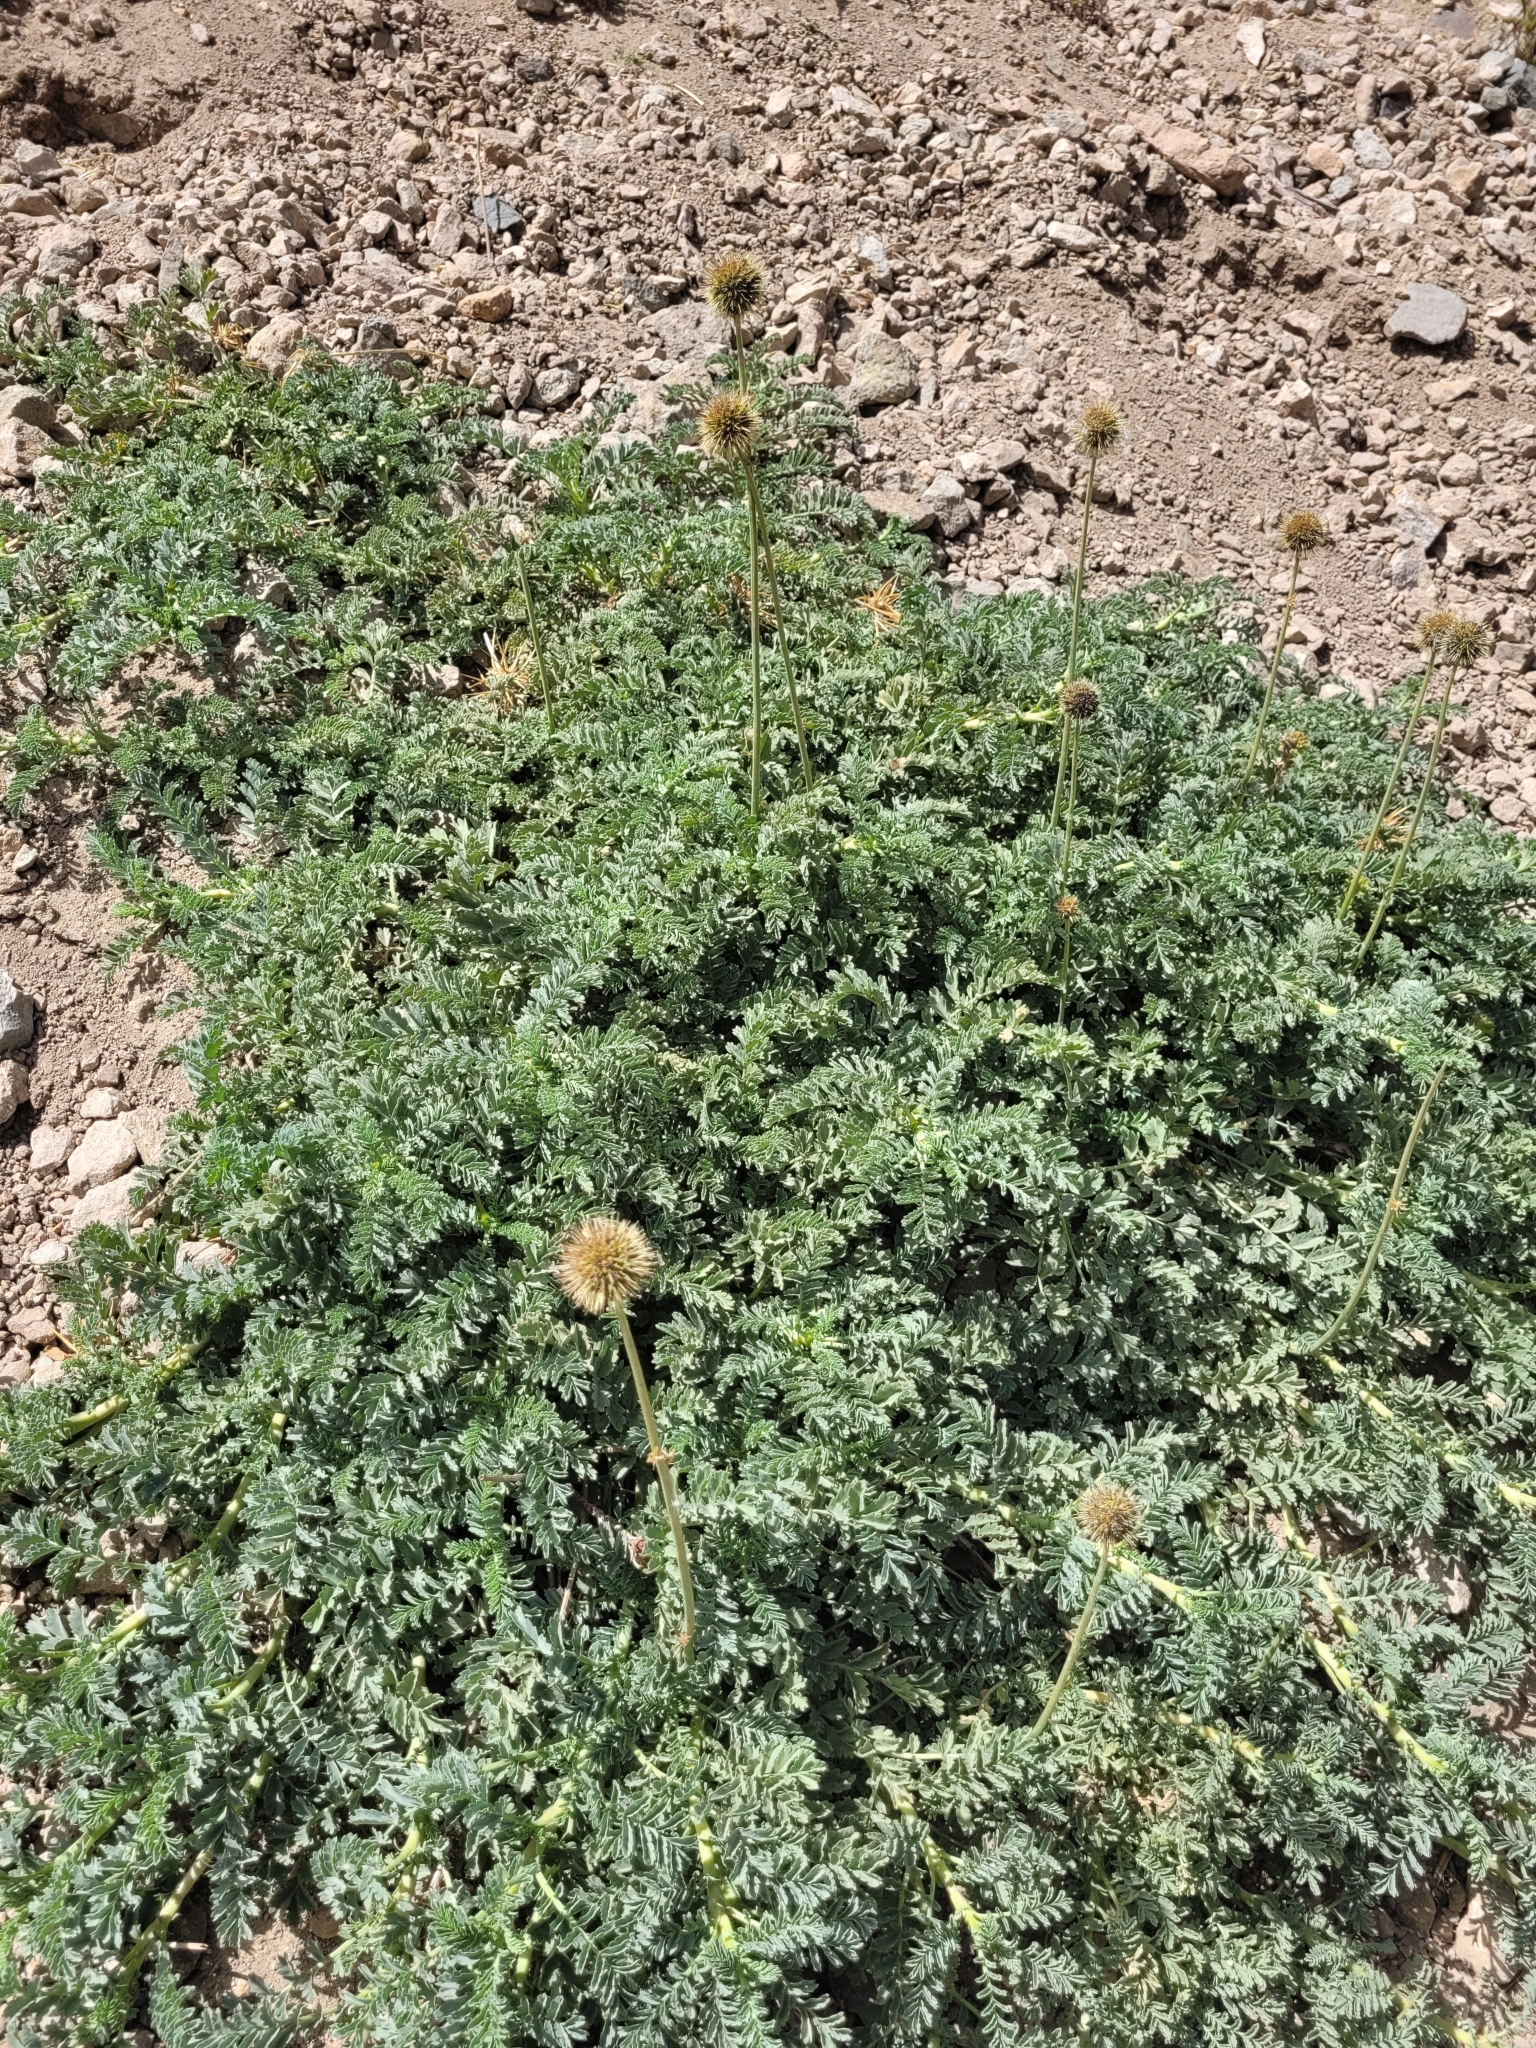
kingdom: Plantae
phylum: Tracheophyta
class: Magnoliopsida
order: Rosales
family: Rosaceae
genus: Acaena
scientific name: Acaena magellanica
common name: New zealand burr
